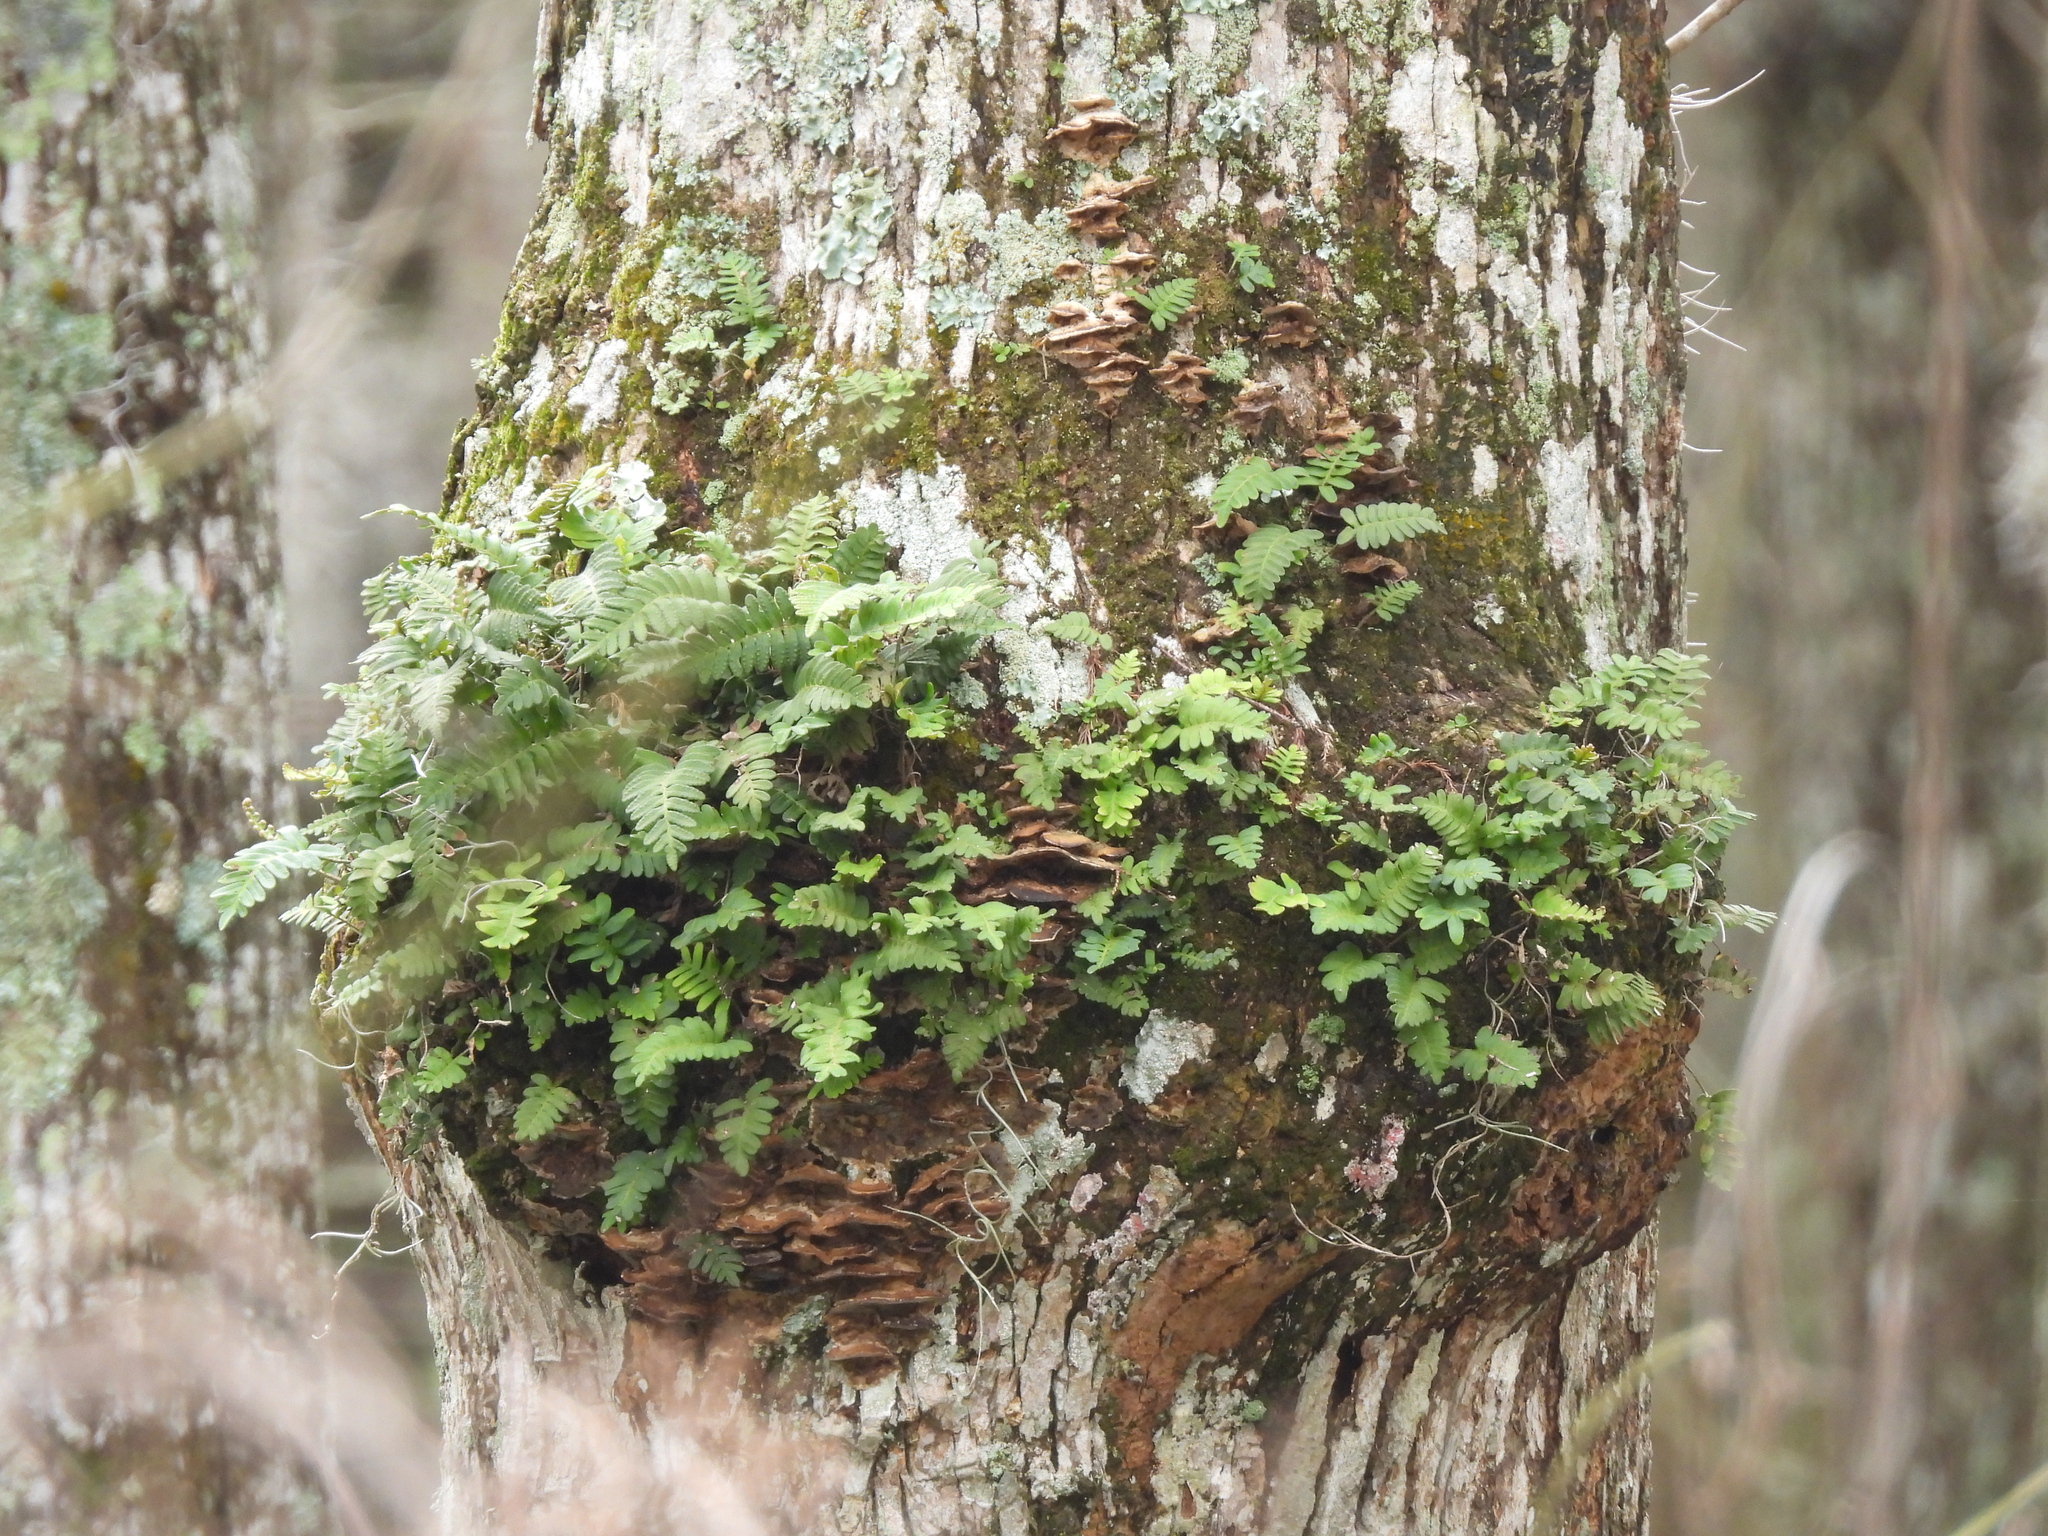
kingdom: Plantae
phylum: Tracheophyta
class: Polypodiopsida
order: Polypodiales
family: Polypodiaceae
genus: Pleopeltis
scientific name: Pleopeltis michauxiana
